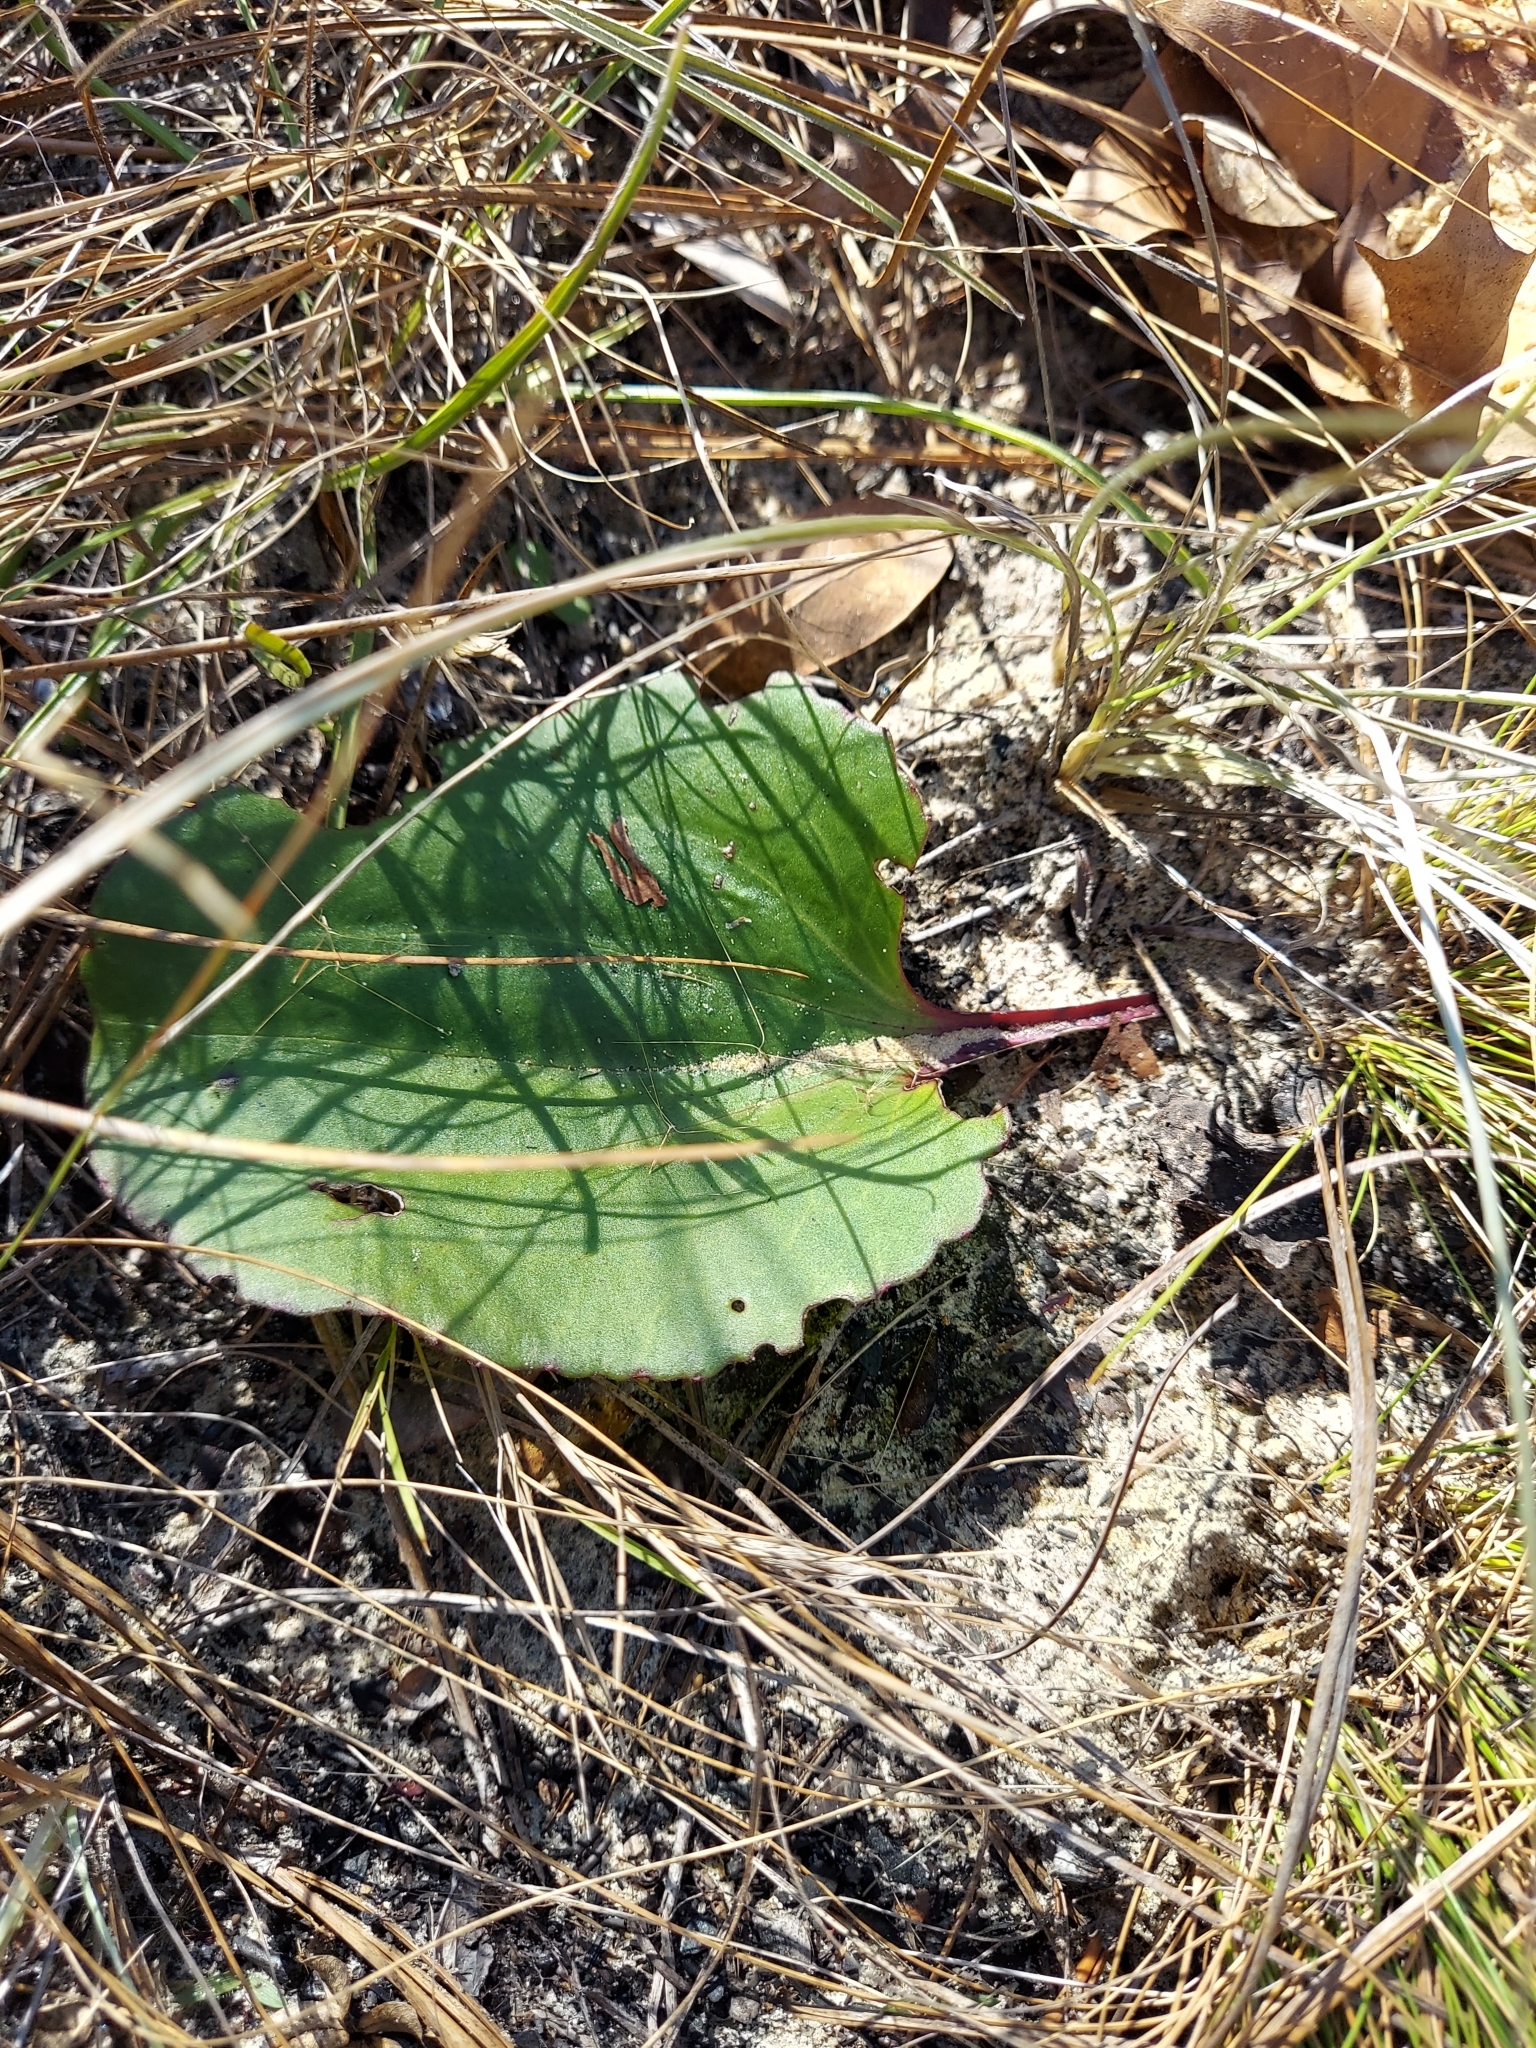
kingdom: Plantae
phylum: Tracheophyta
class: Magnoliopsida
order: Asterales
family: Asteraceae
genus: Arnoglossum
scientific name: Arnoglossum floridanum
